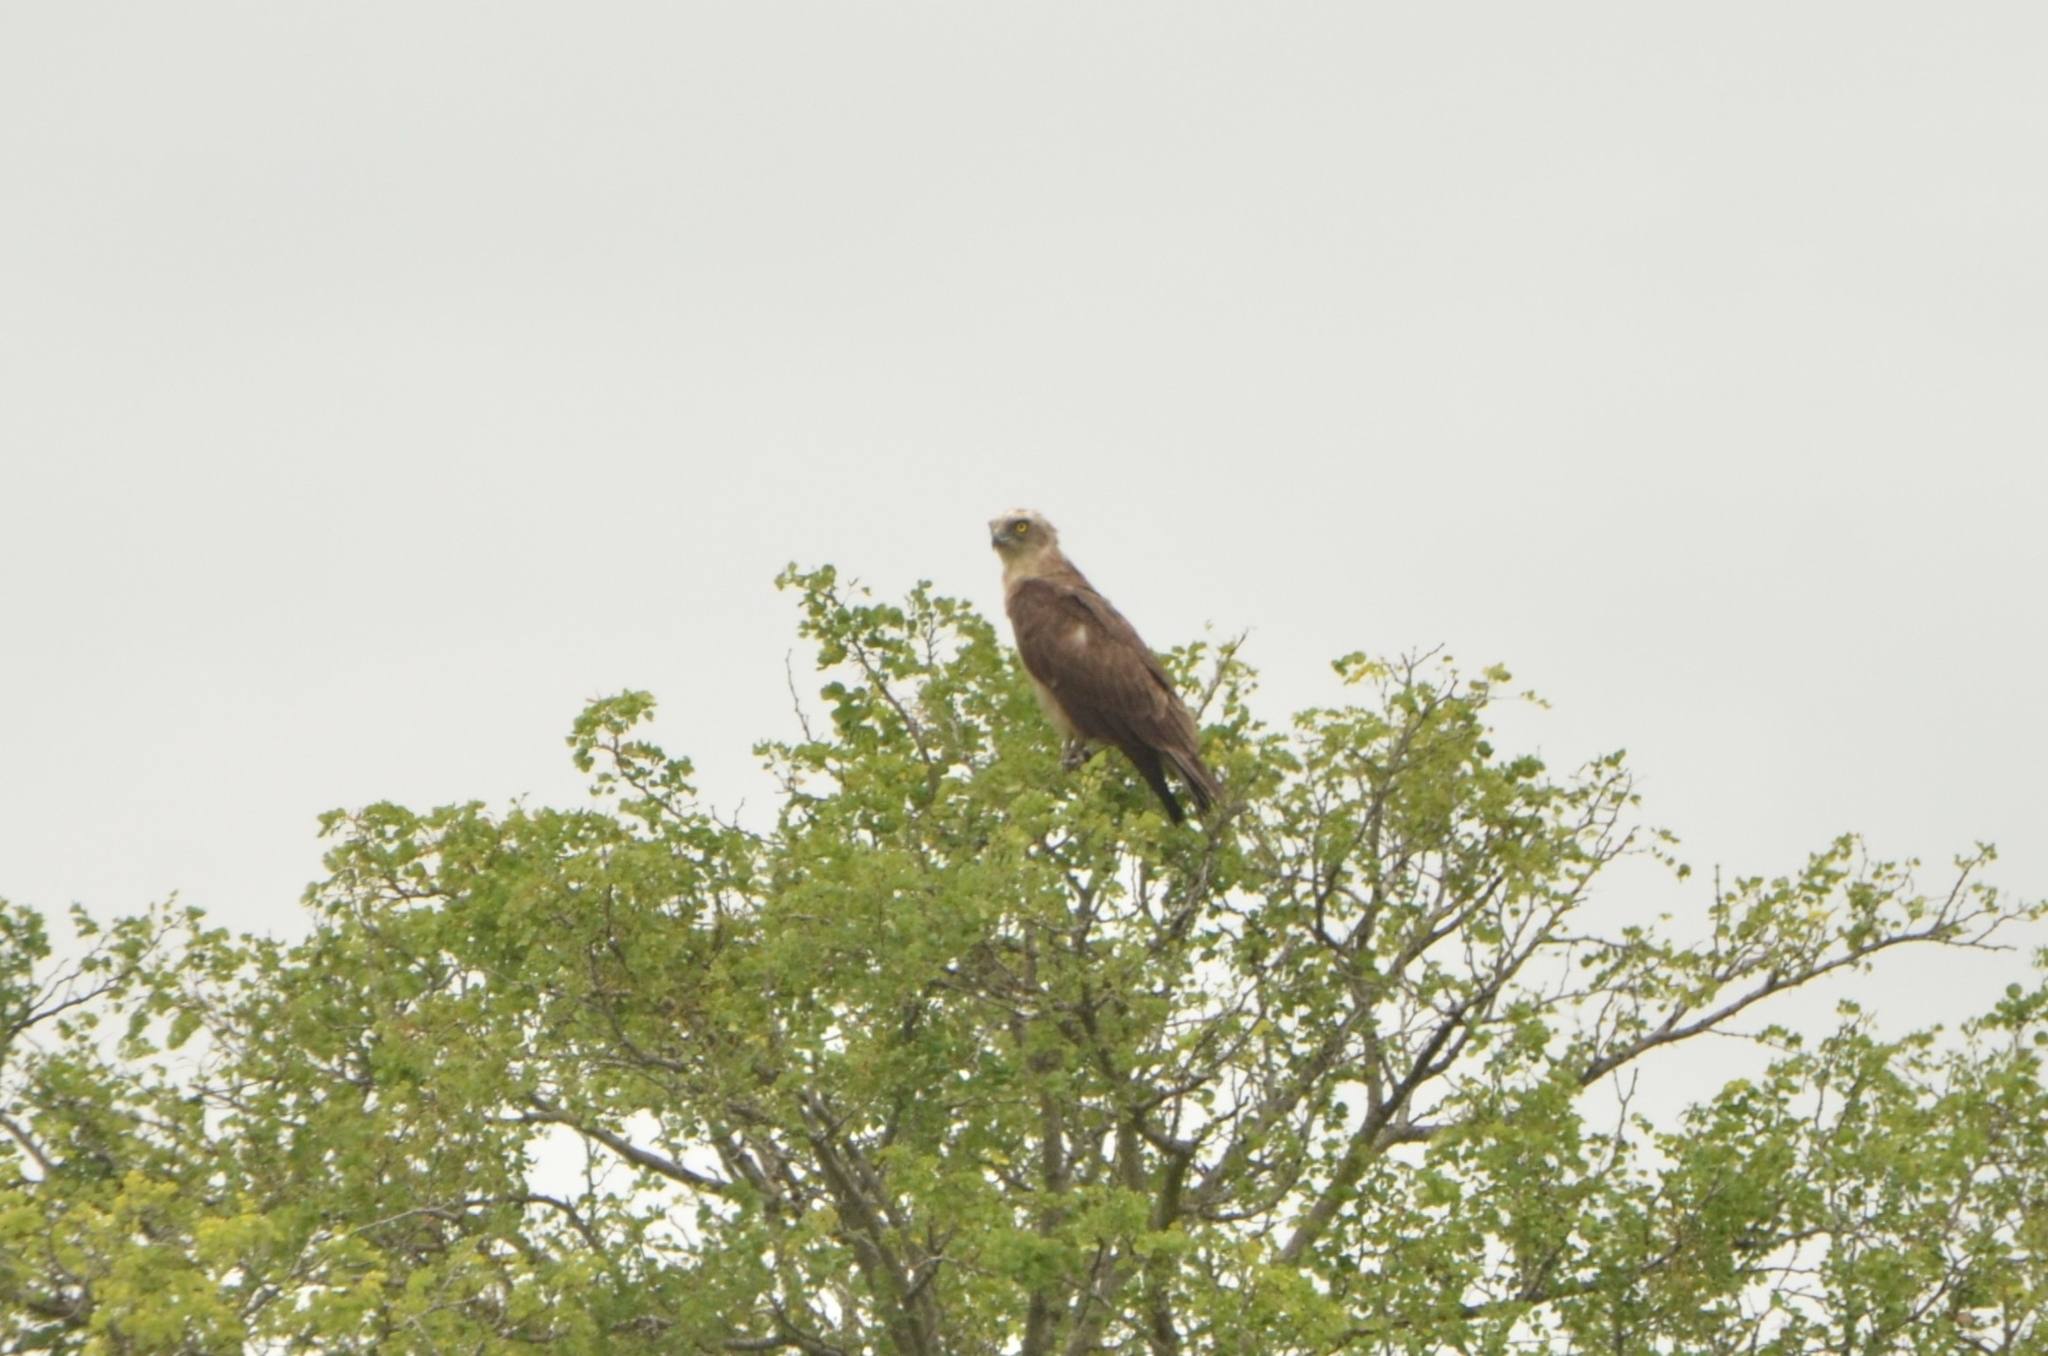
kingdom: Animalia
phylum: Chordata
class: Aves
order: Accipitriformes
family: Accipitridae
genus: Circaetus
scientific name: Circaetus cinereus
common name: Brown snake eagle
